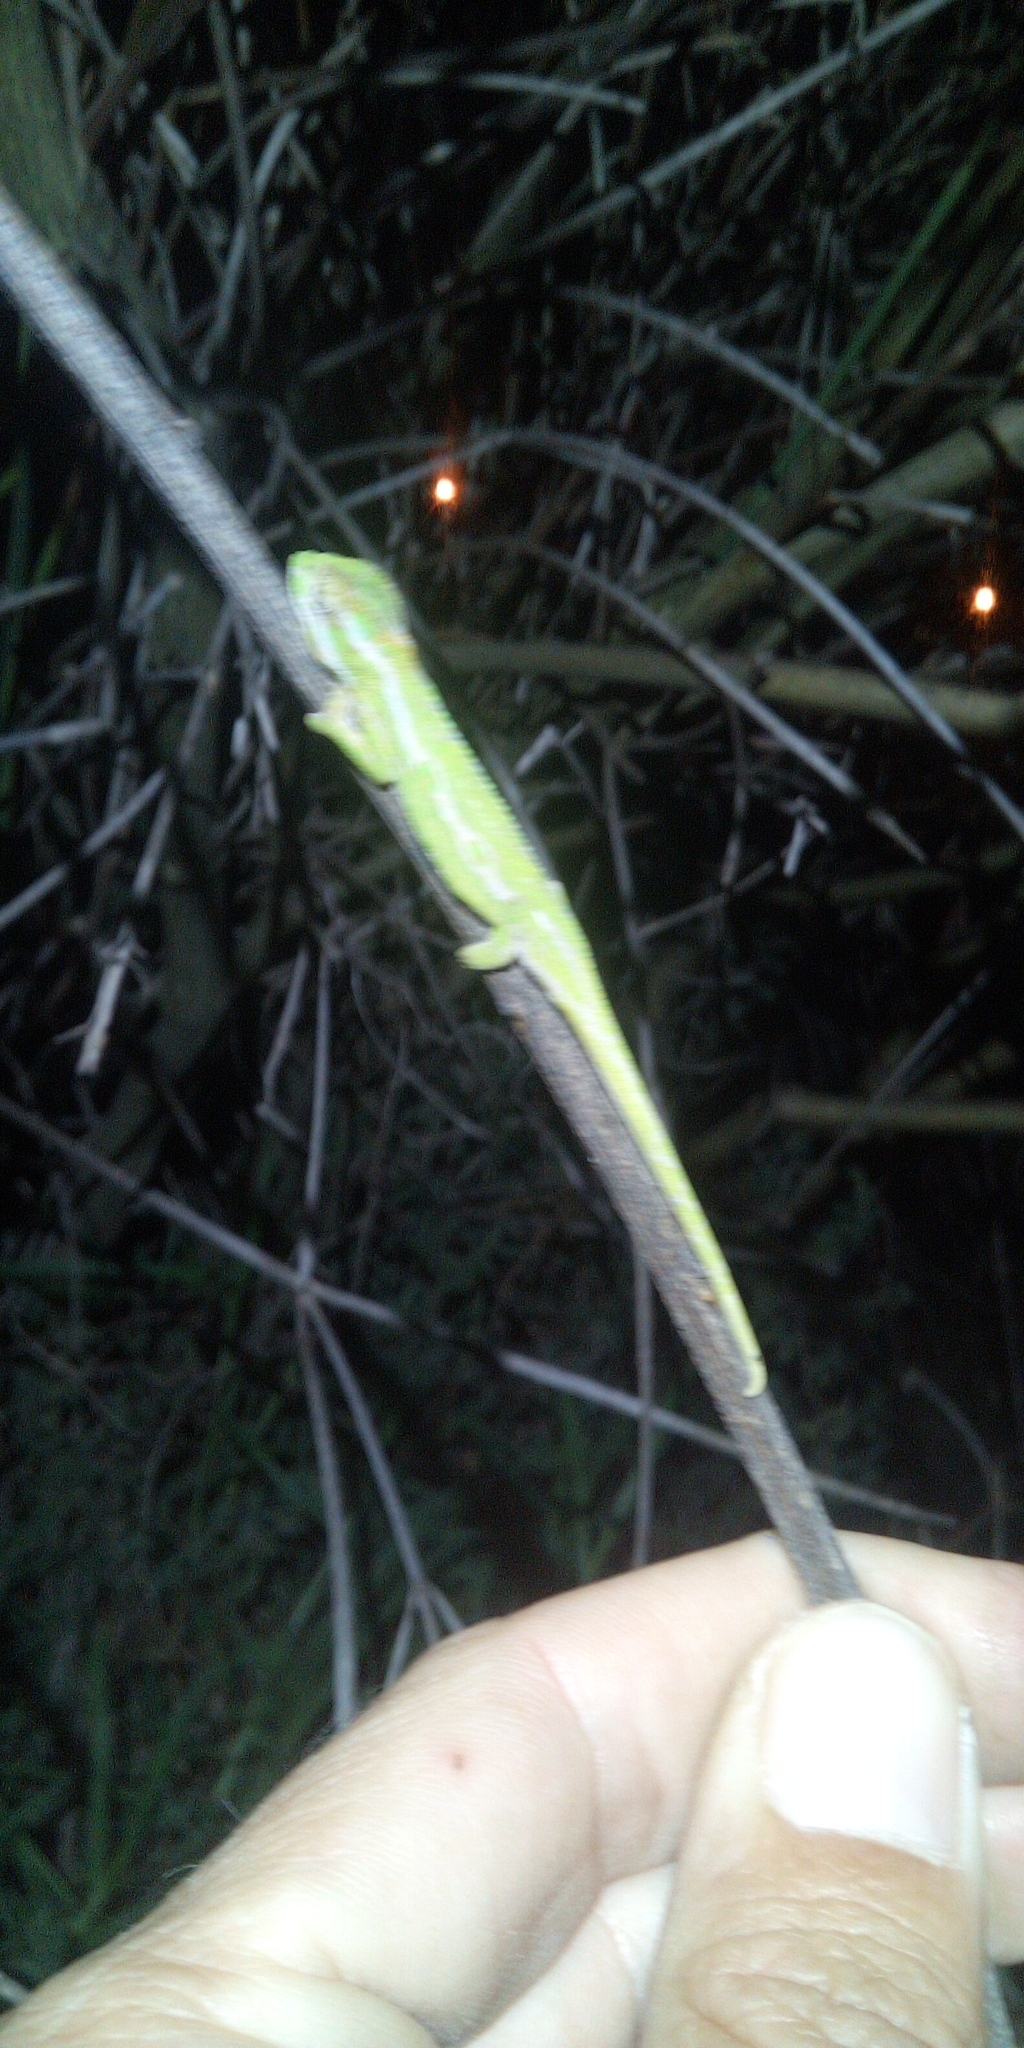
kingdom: Animalia
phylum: Chordata
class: Squamata
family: Chamaeleonidae
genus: Bradypodion
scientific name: Bradypodion pumilum
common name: Cape dwarf chameleon
